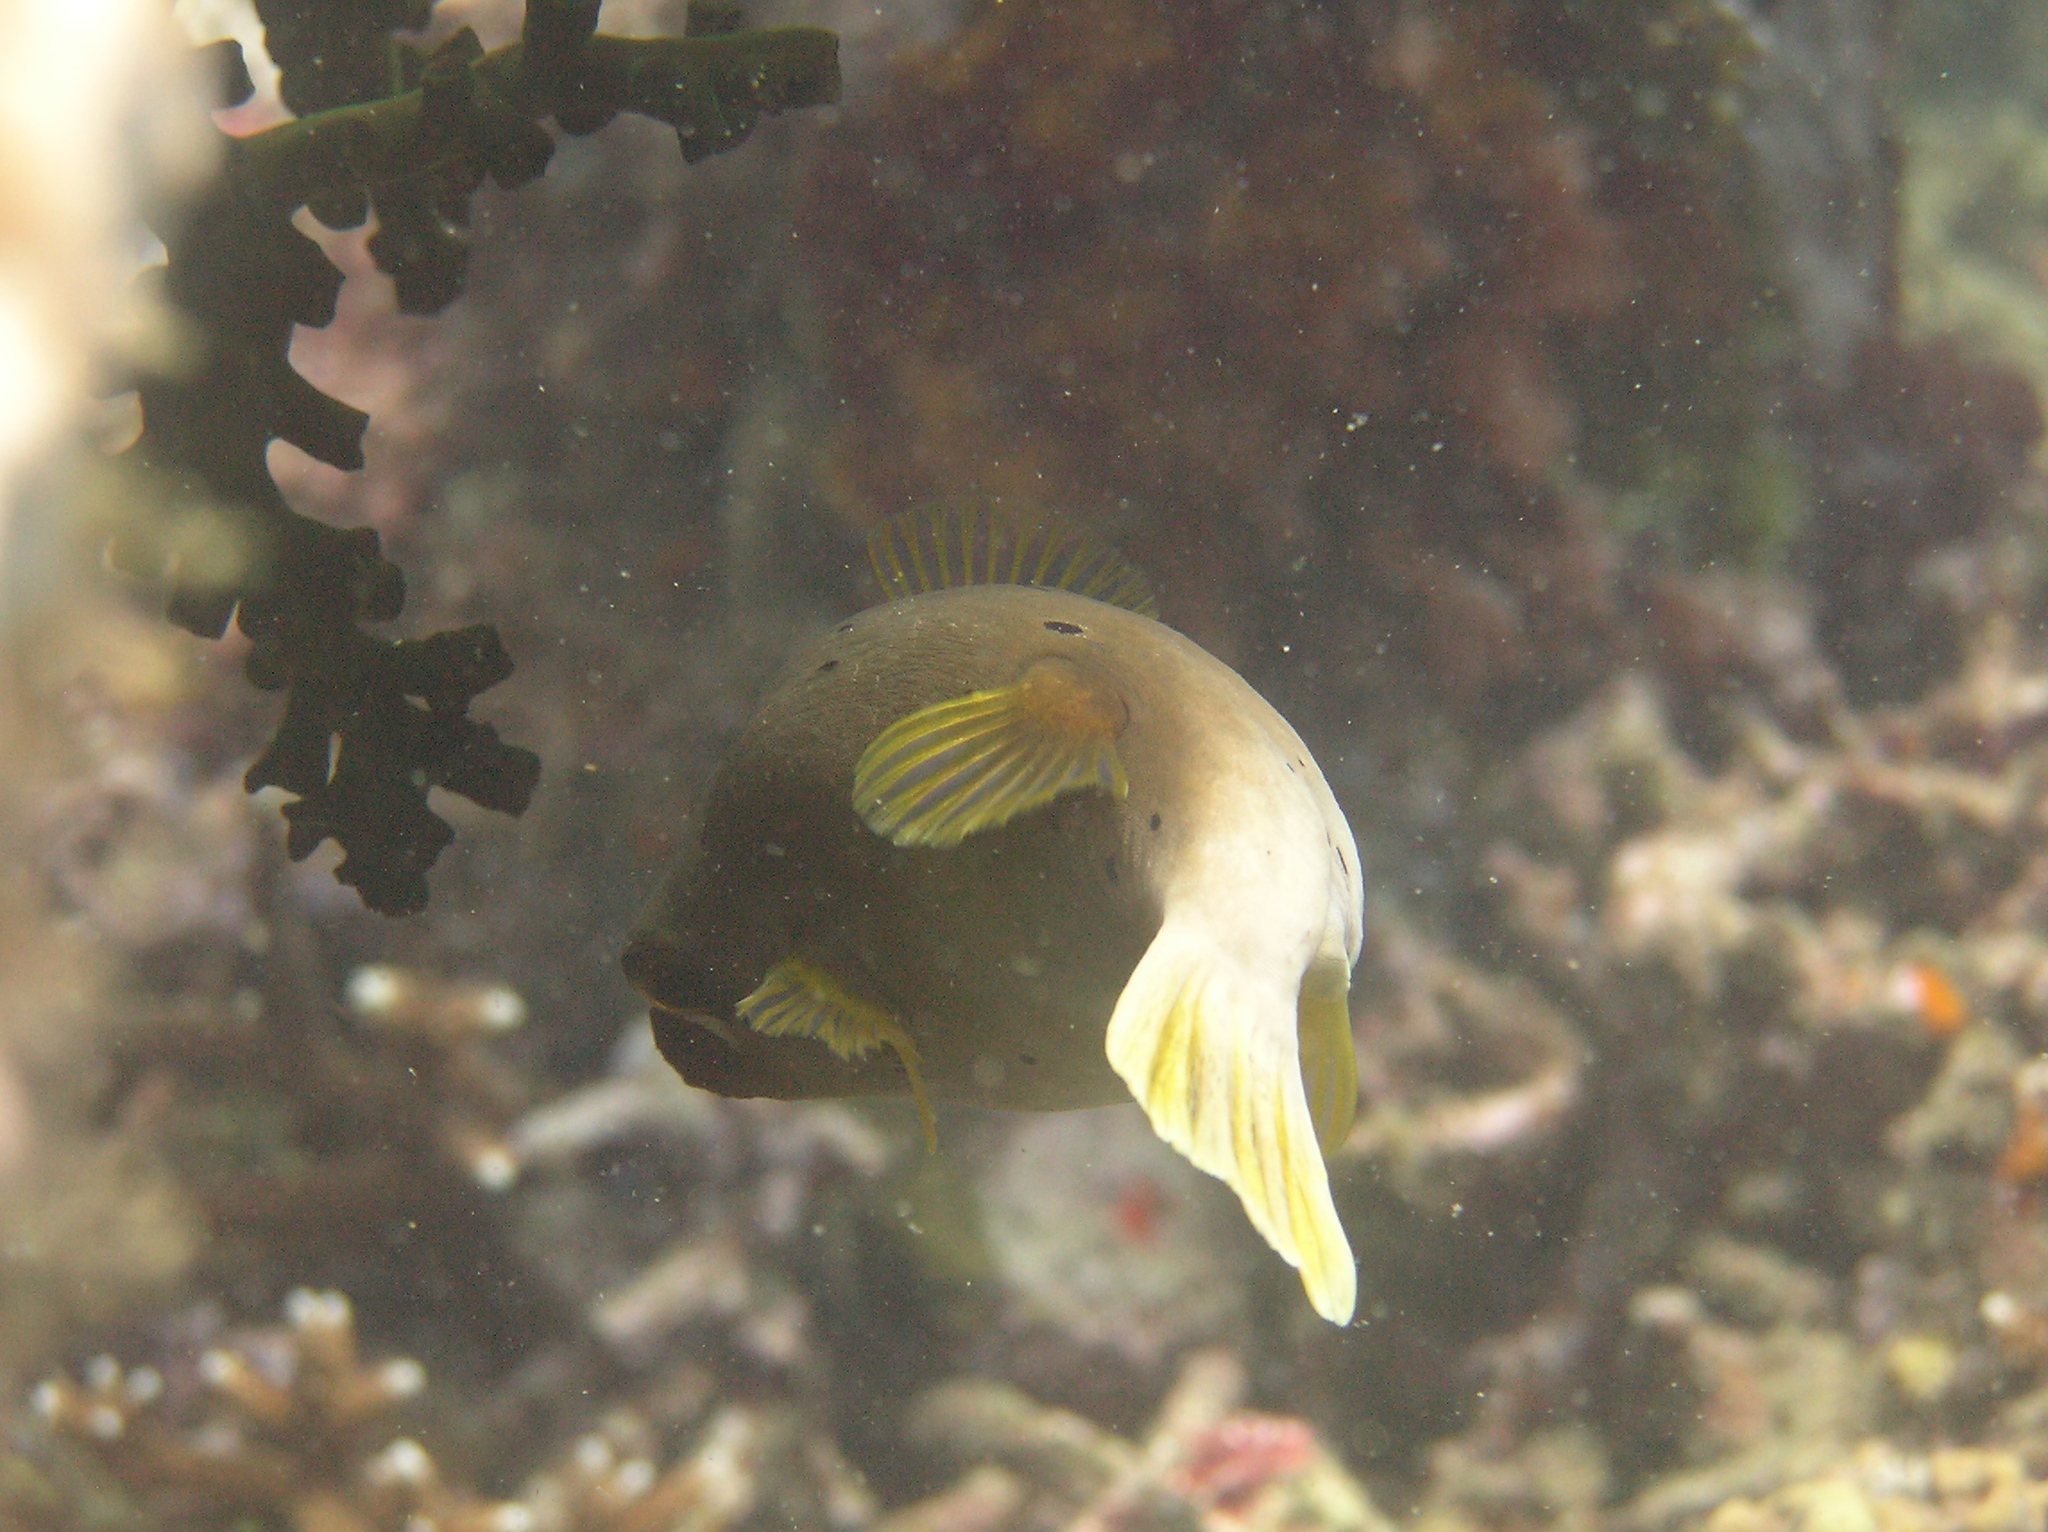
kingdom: Animalia
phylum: Chordata
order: Tetraodontiformes
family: Tetraodontidae
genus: Arothron
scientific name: Arothron nigropunctatus
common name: Black spotted blow fish
